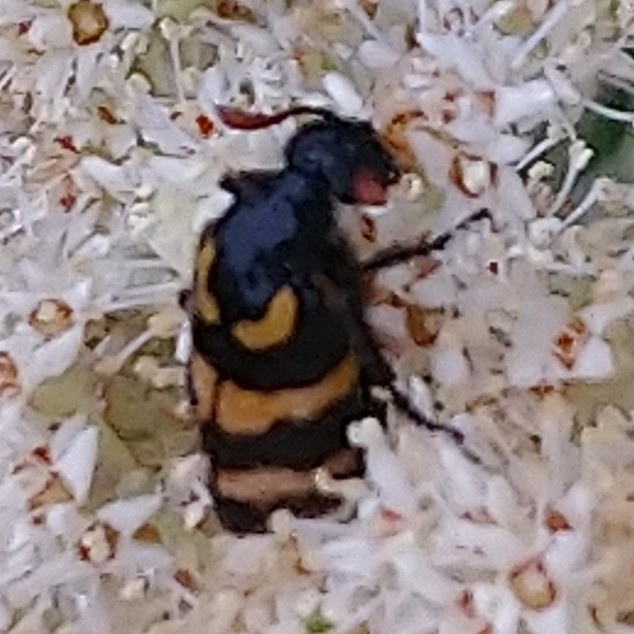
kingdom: Animalia
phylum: Arthropoda
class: Insecta
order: Coleoptera
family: Meloidae
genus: Meloe
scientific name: Meloe lunata
